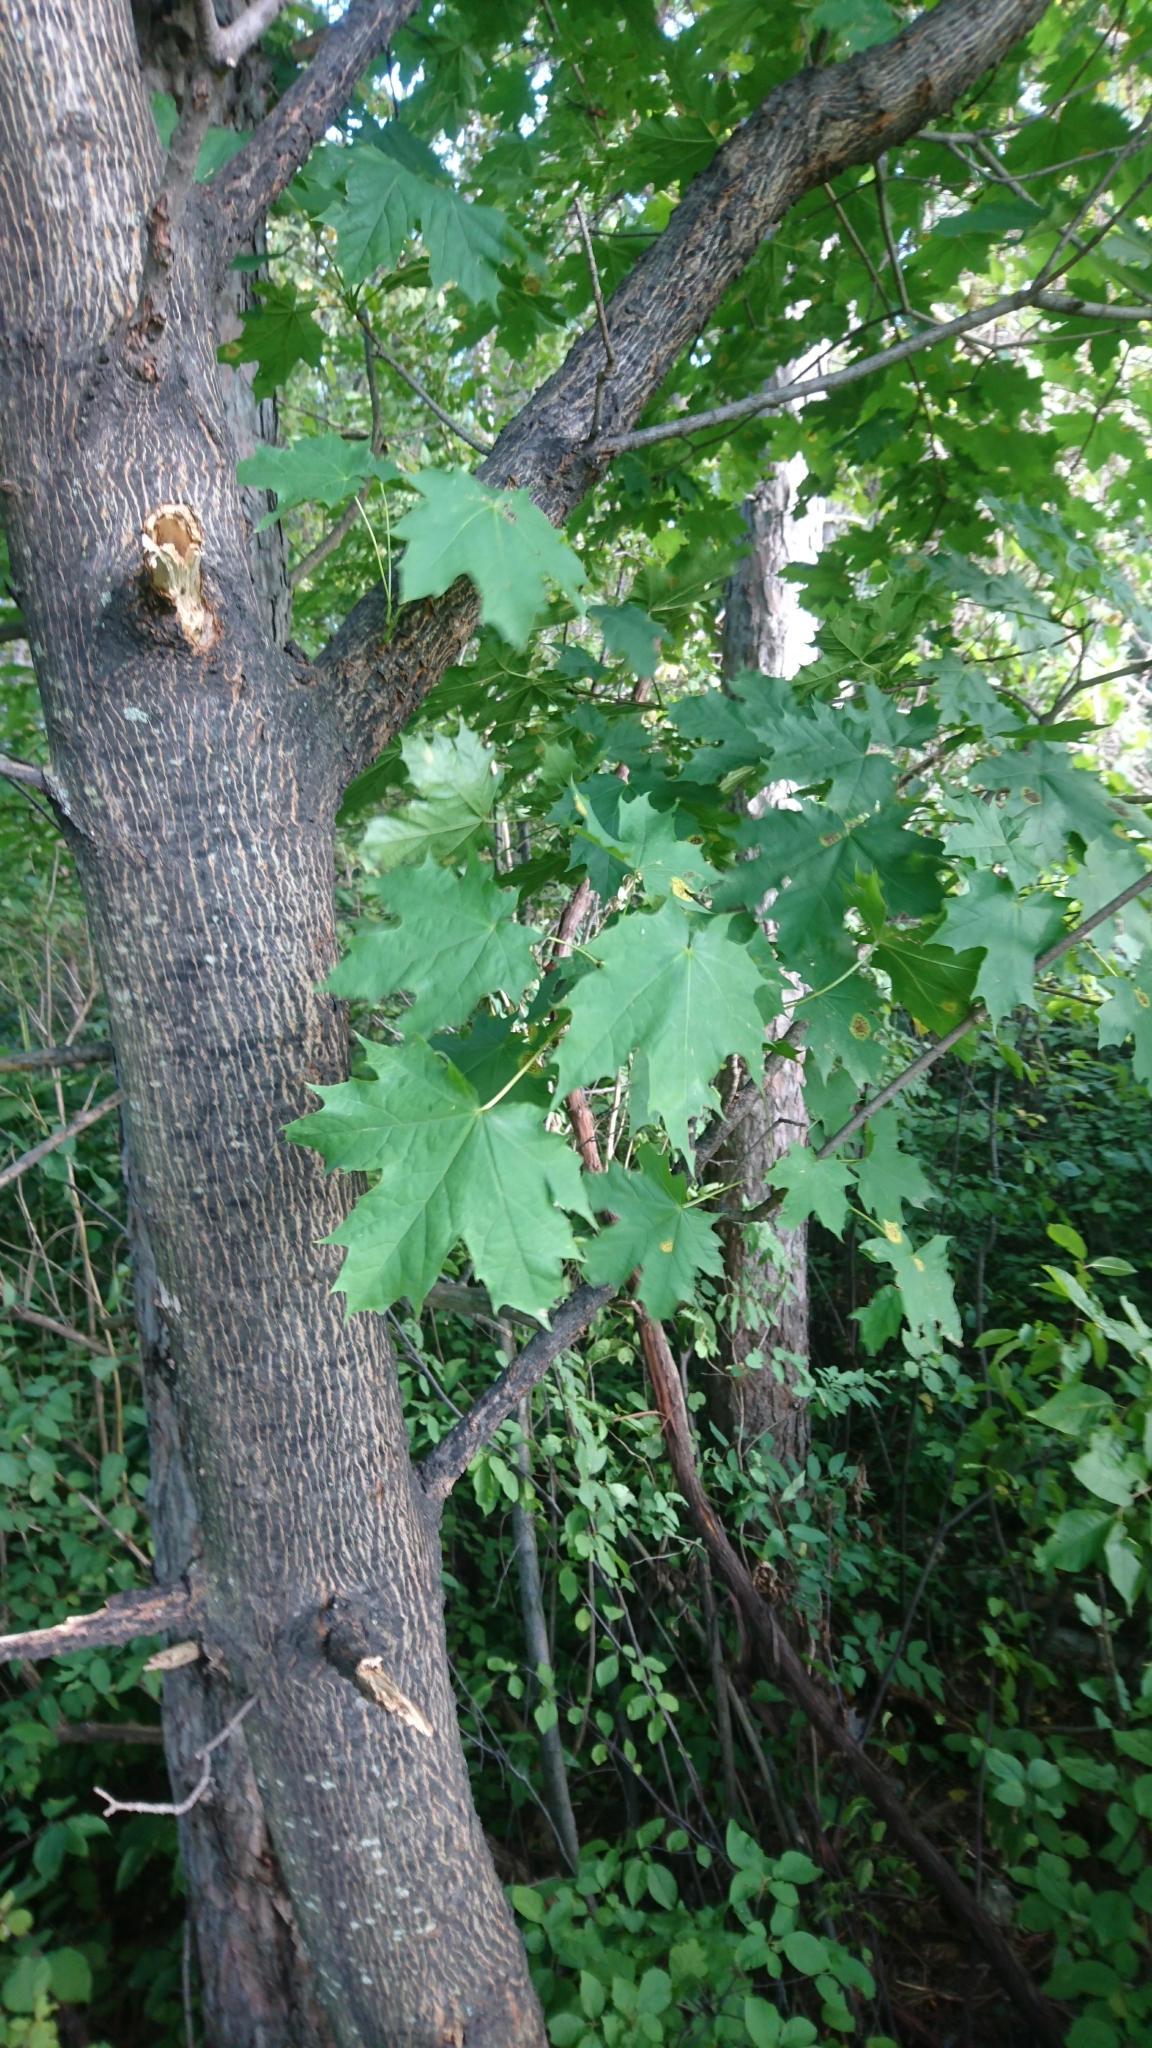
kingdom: Plantae
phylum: Tracheophyta
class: Magnoliopsida
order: Sapindales
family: Sapindaceae
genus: Acer
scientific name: Acer platanoides
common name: Norway maple
